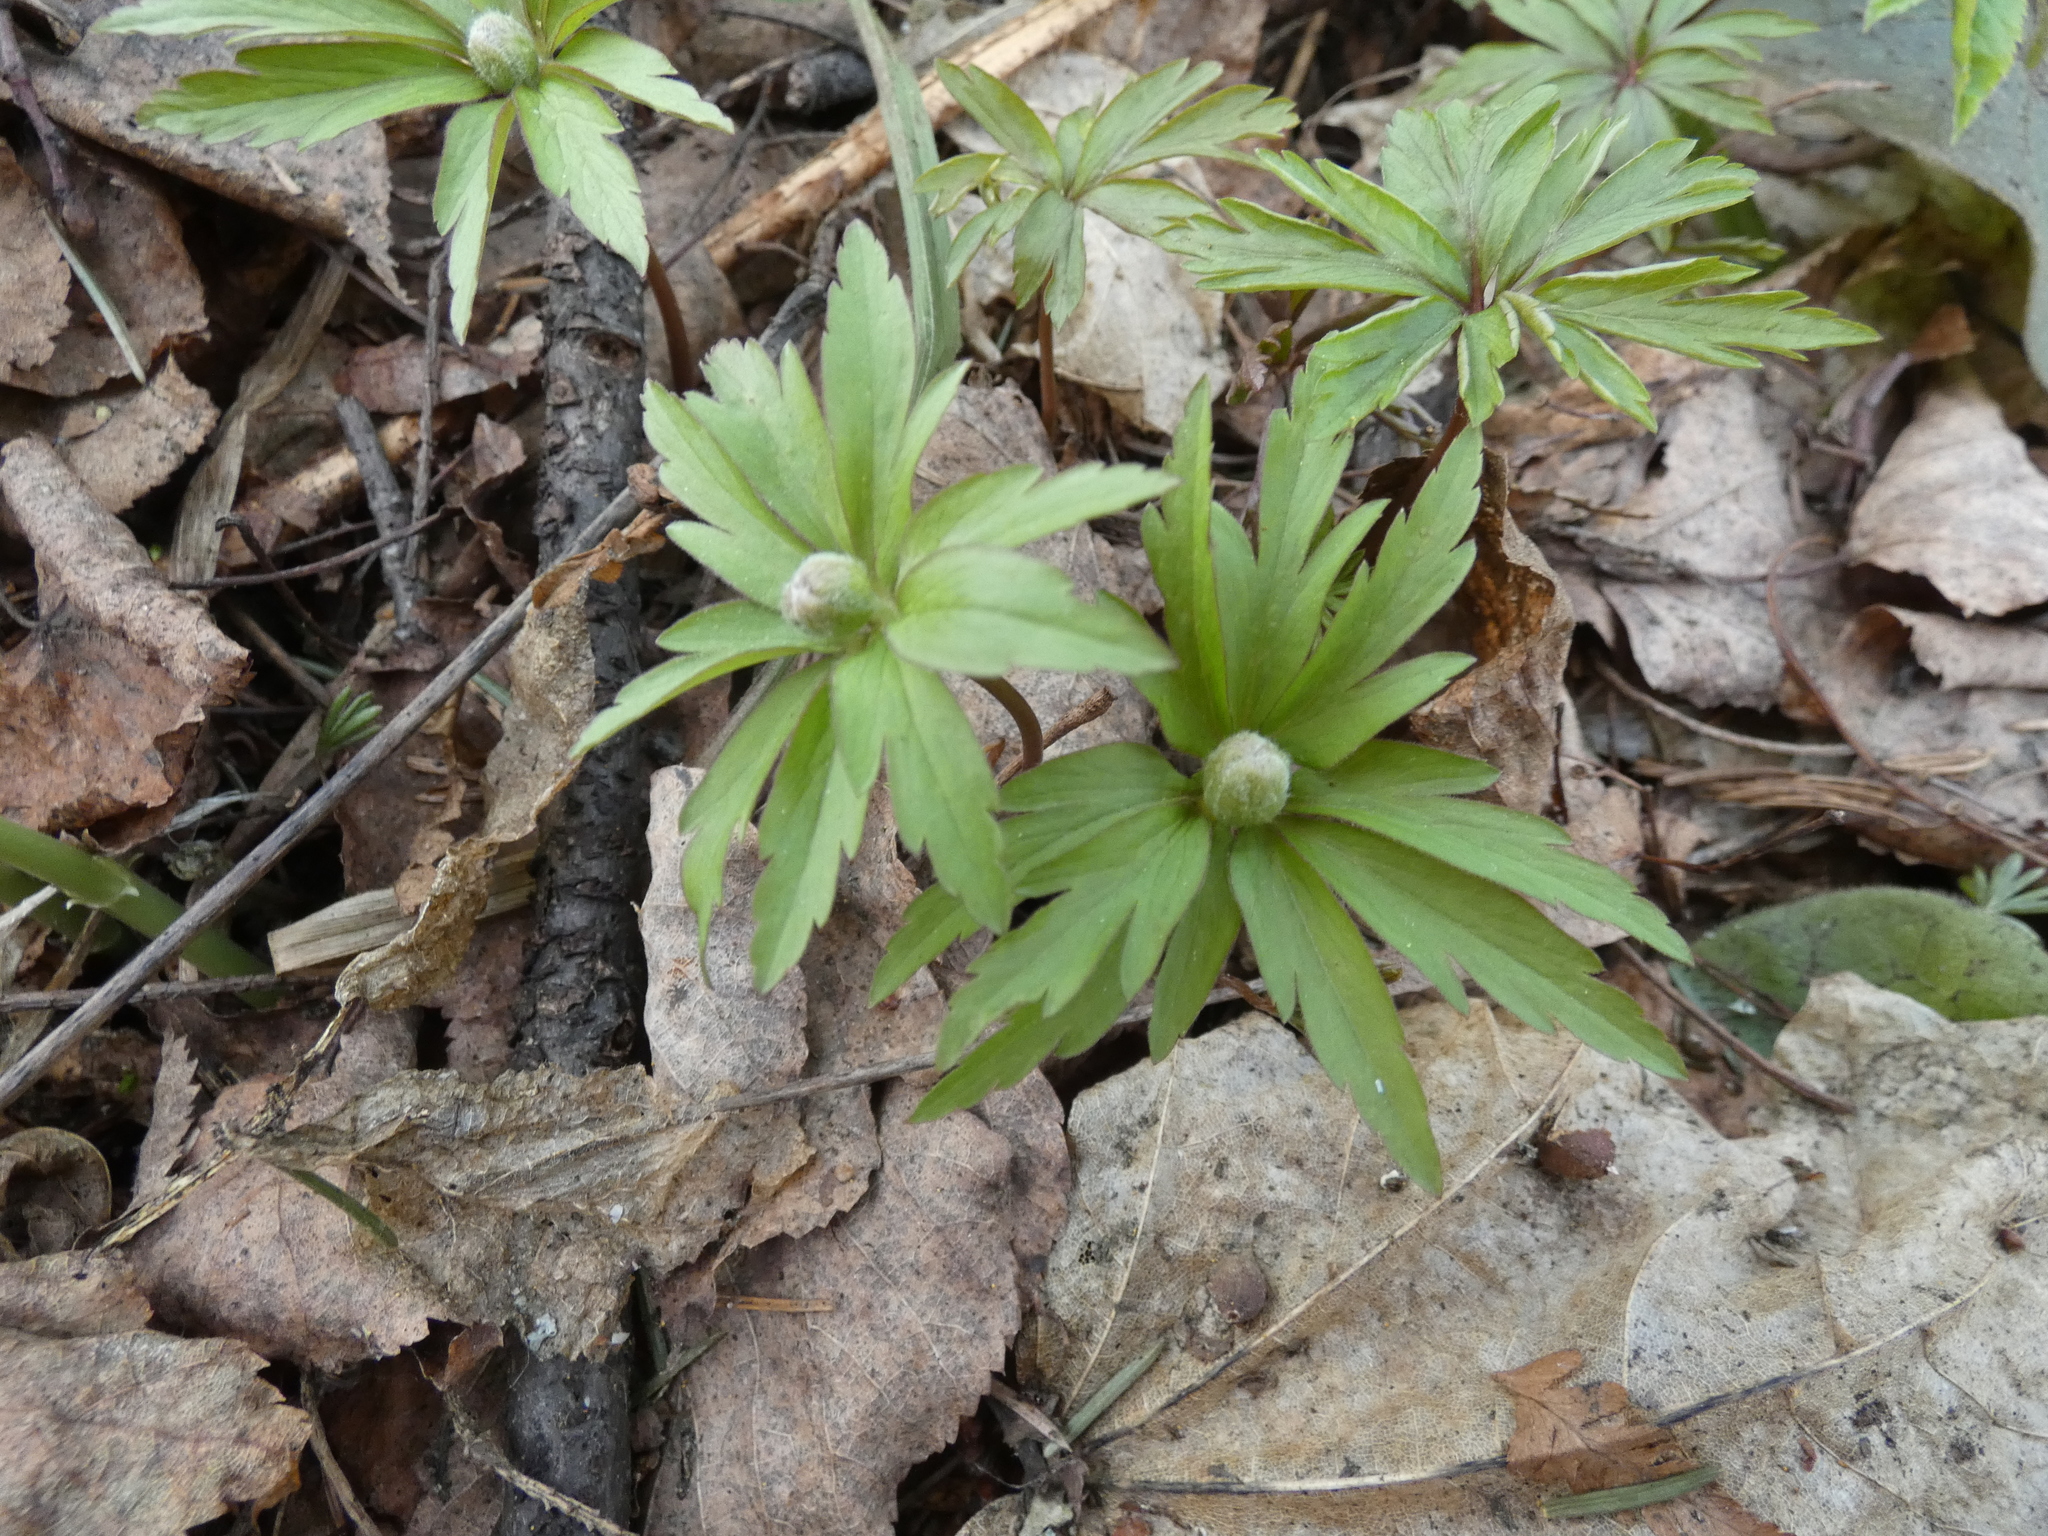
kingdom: Plantae
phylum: Tracheophyta
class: Magnoliopsida
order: Ranunculales
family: Ranunculaceae
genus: Anemone
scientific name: Anemone ranunculoides
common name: Yellow anemone
